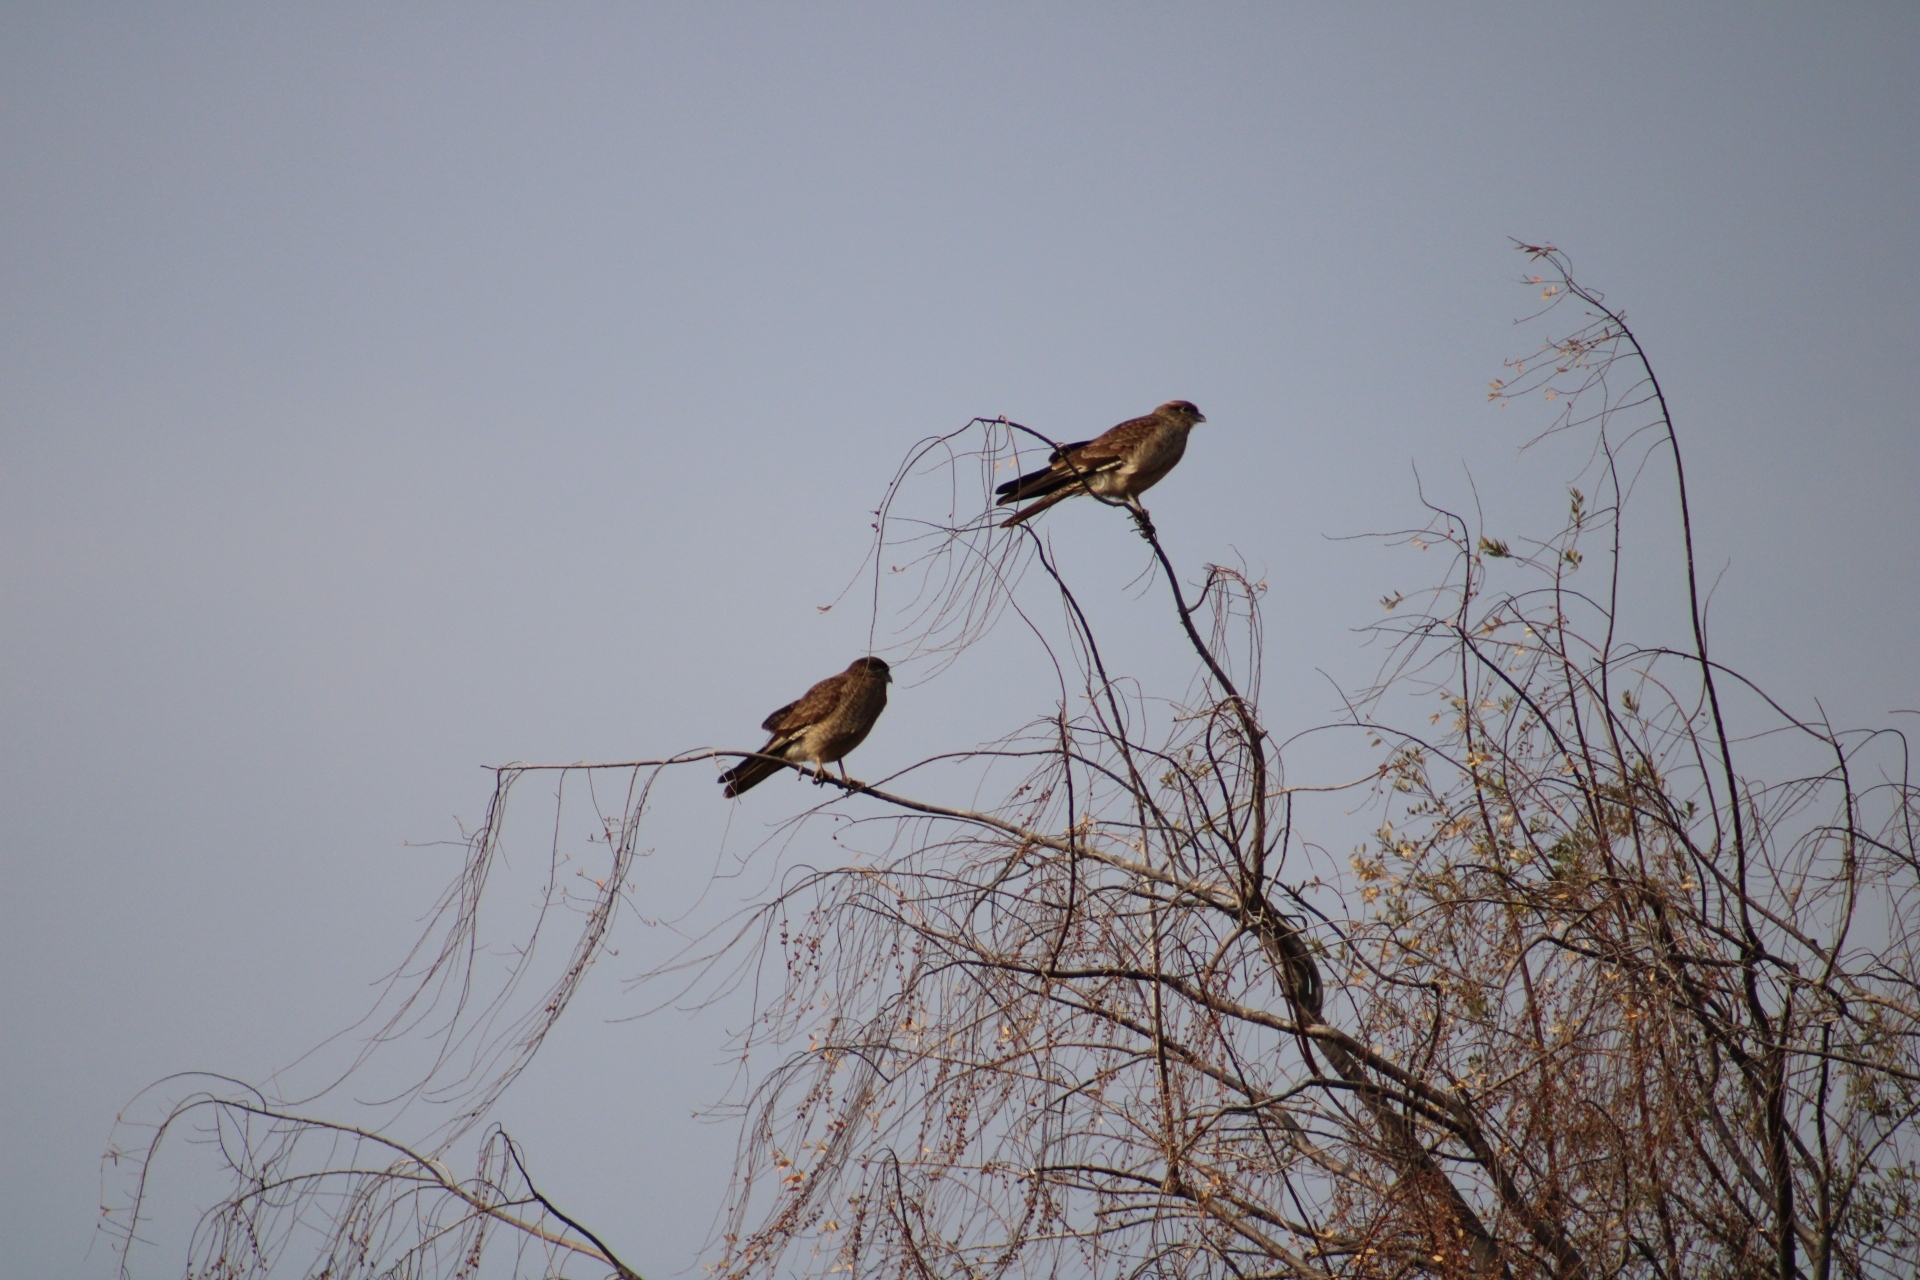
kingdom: Animalia
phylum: Chordata
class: Aves
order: Falconiformes
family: Falconidae
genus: Daptrius
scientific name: Daptrius
